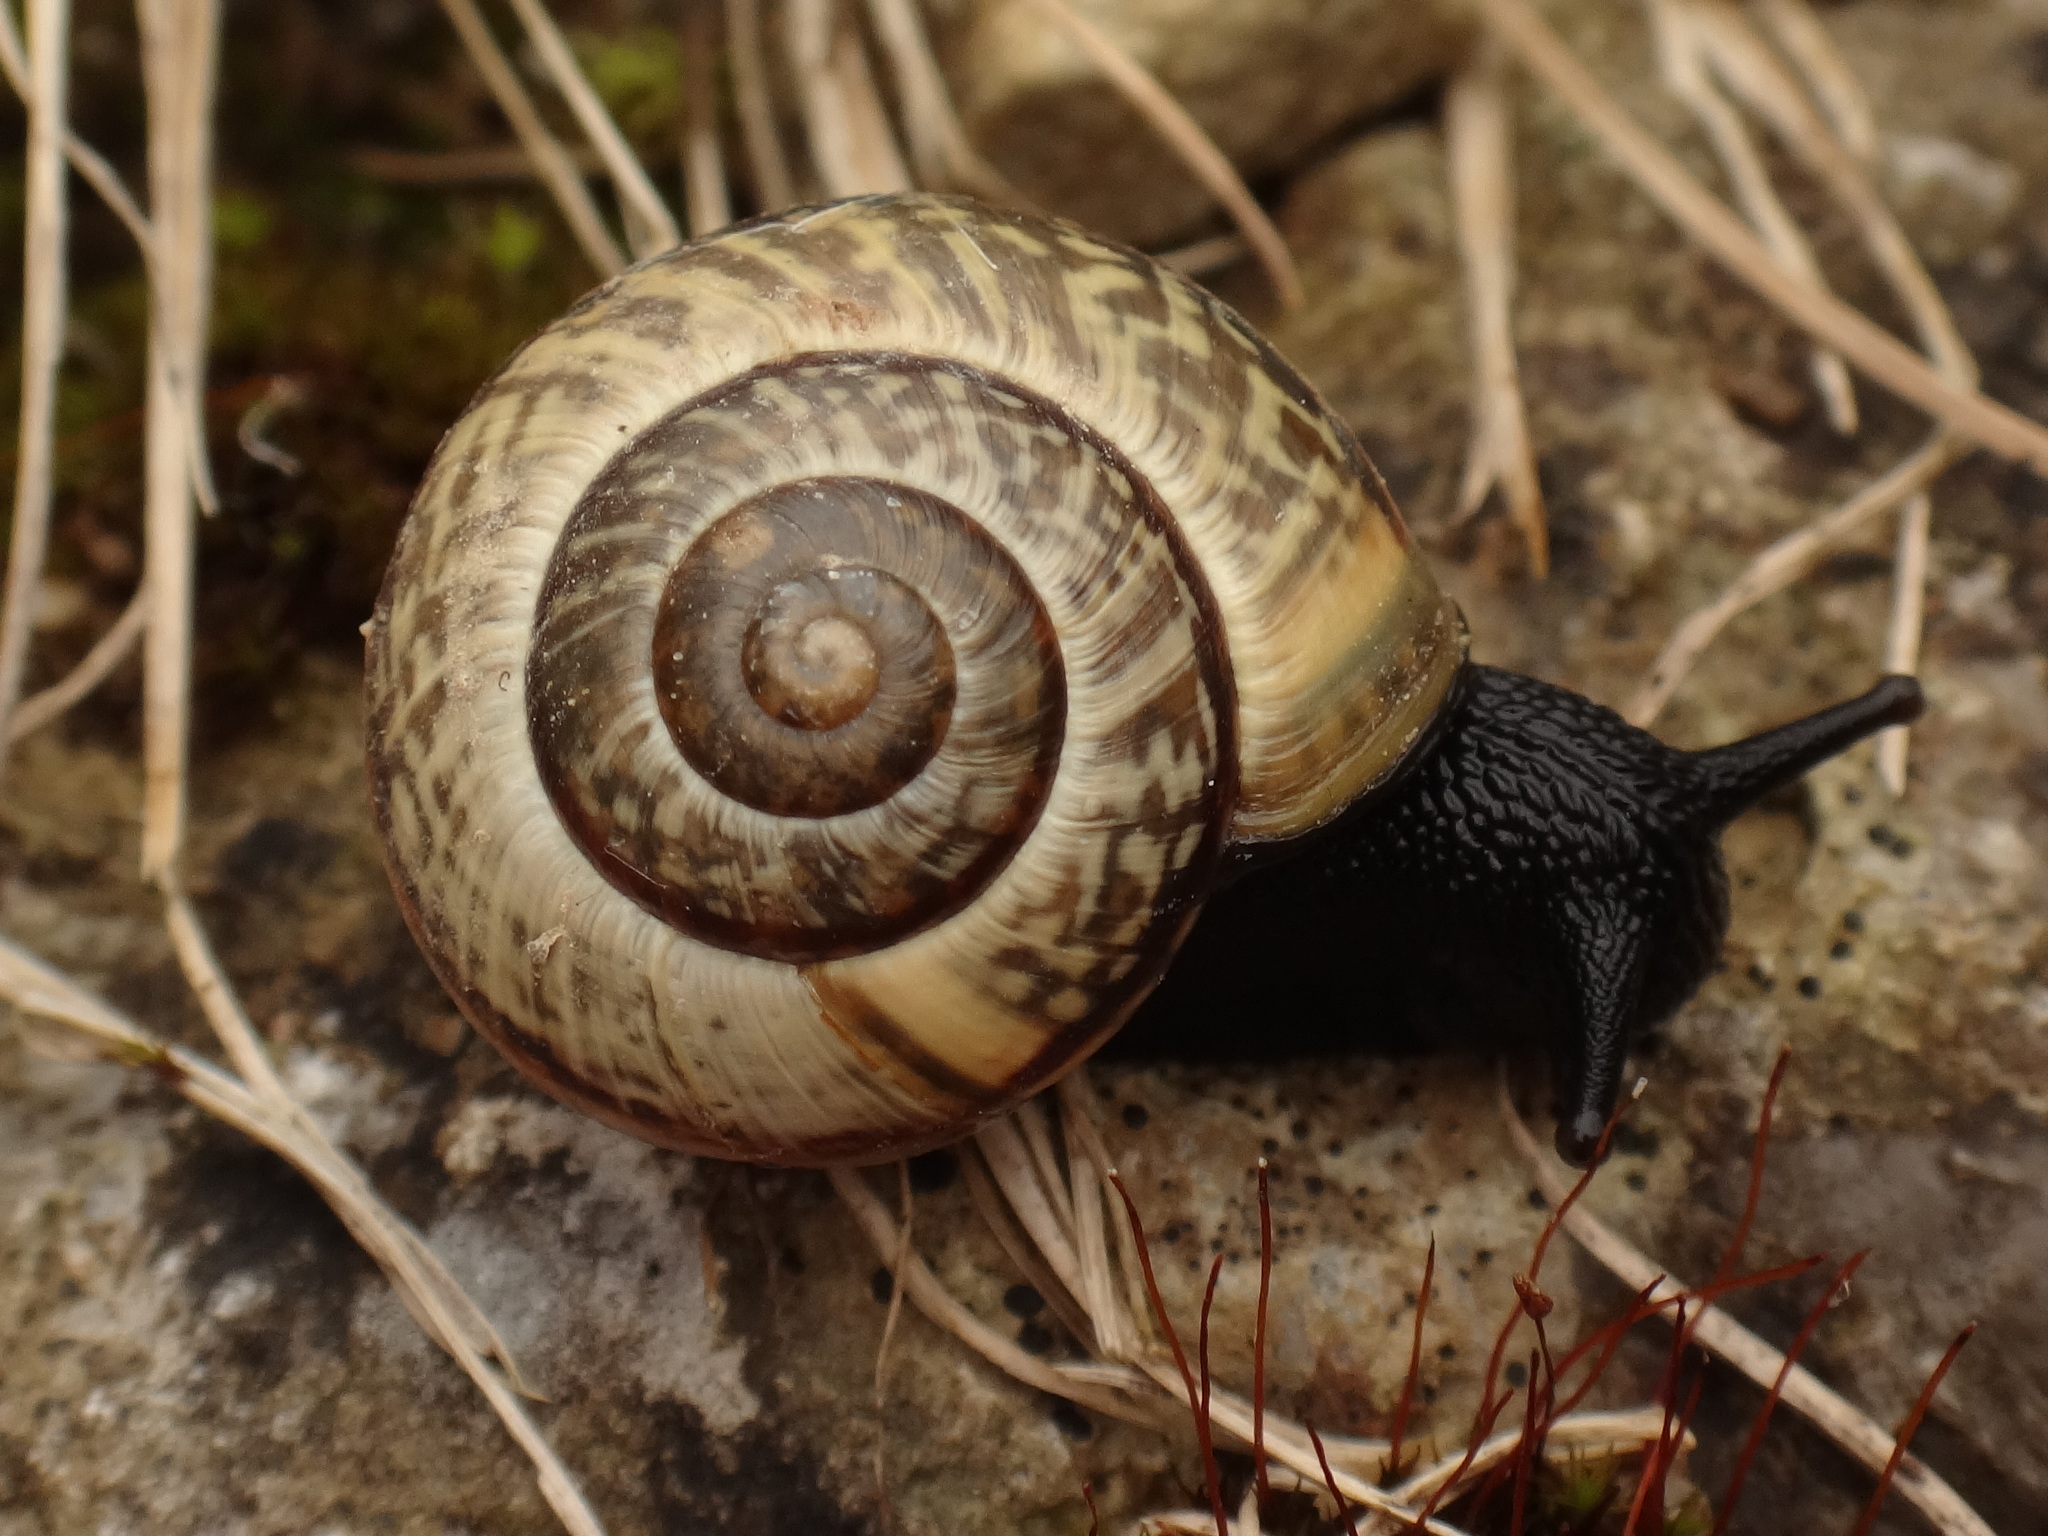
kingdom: Animalia
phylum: Mollusca
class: Gastropoda
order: Stylommatophora
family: Helicidae
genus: Arianta
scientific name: Arianta arbustorum
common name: Copse snail
